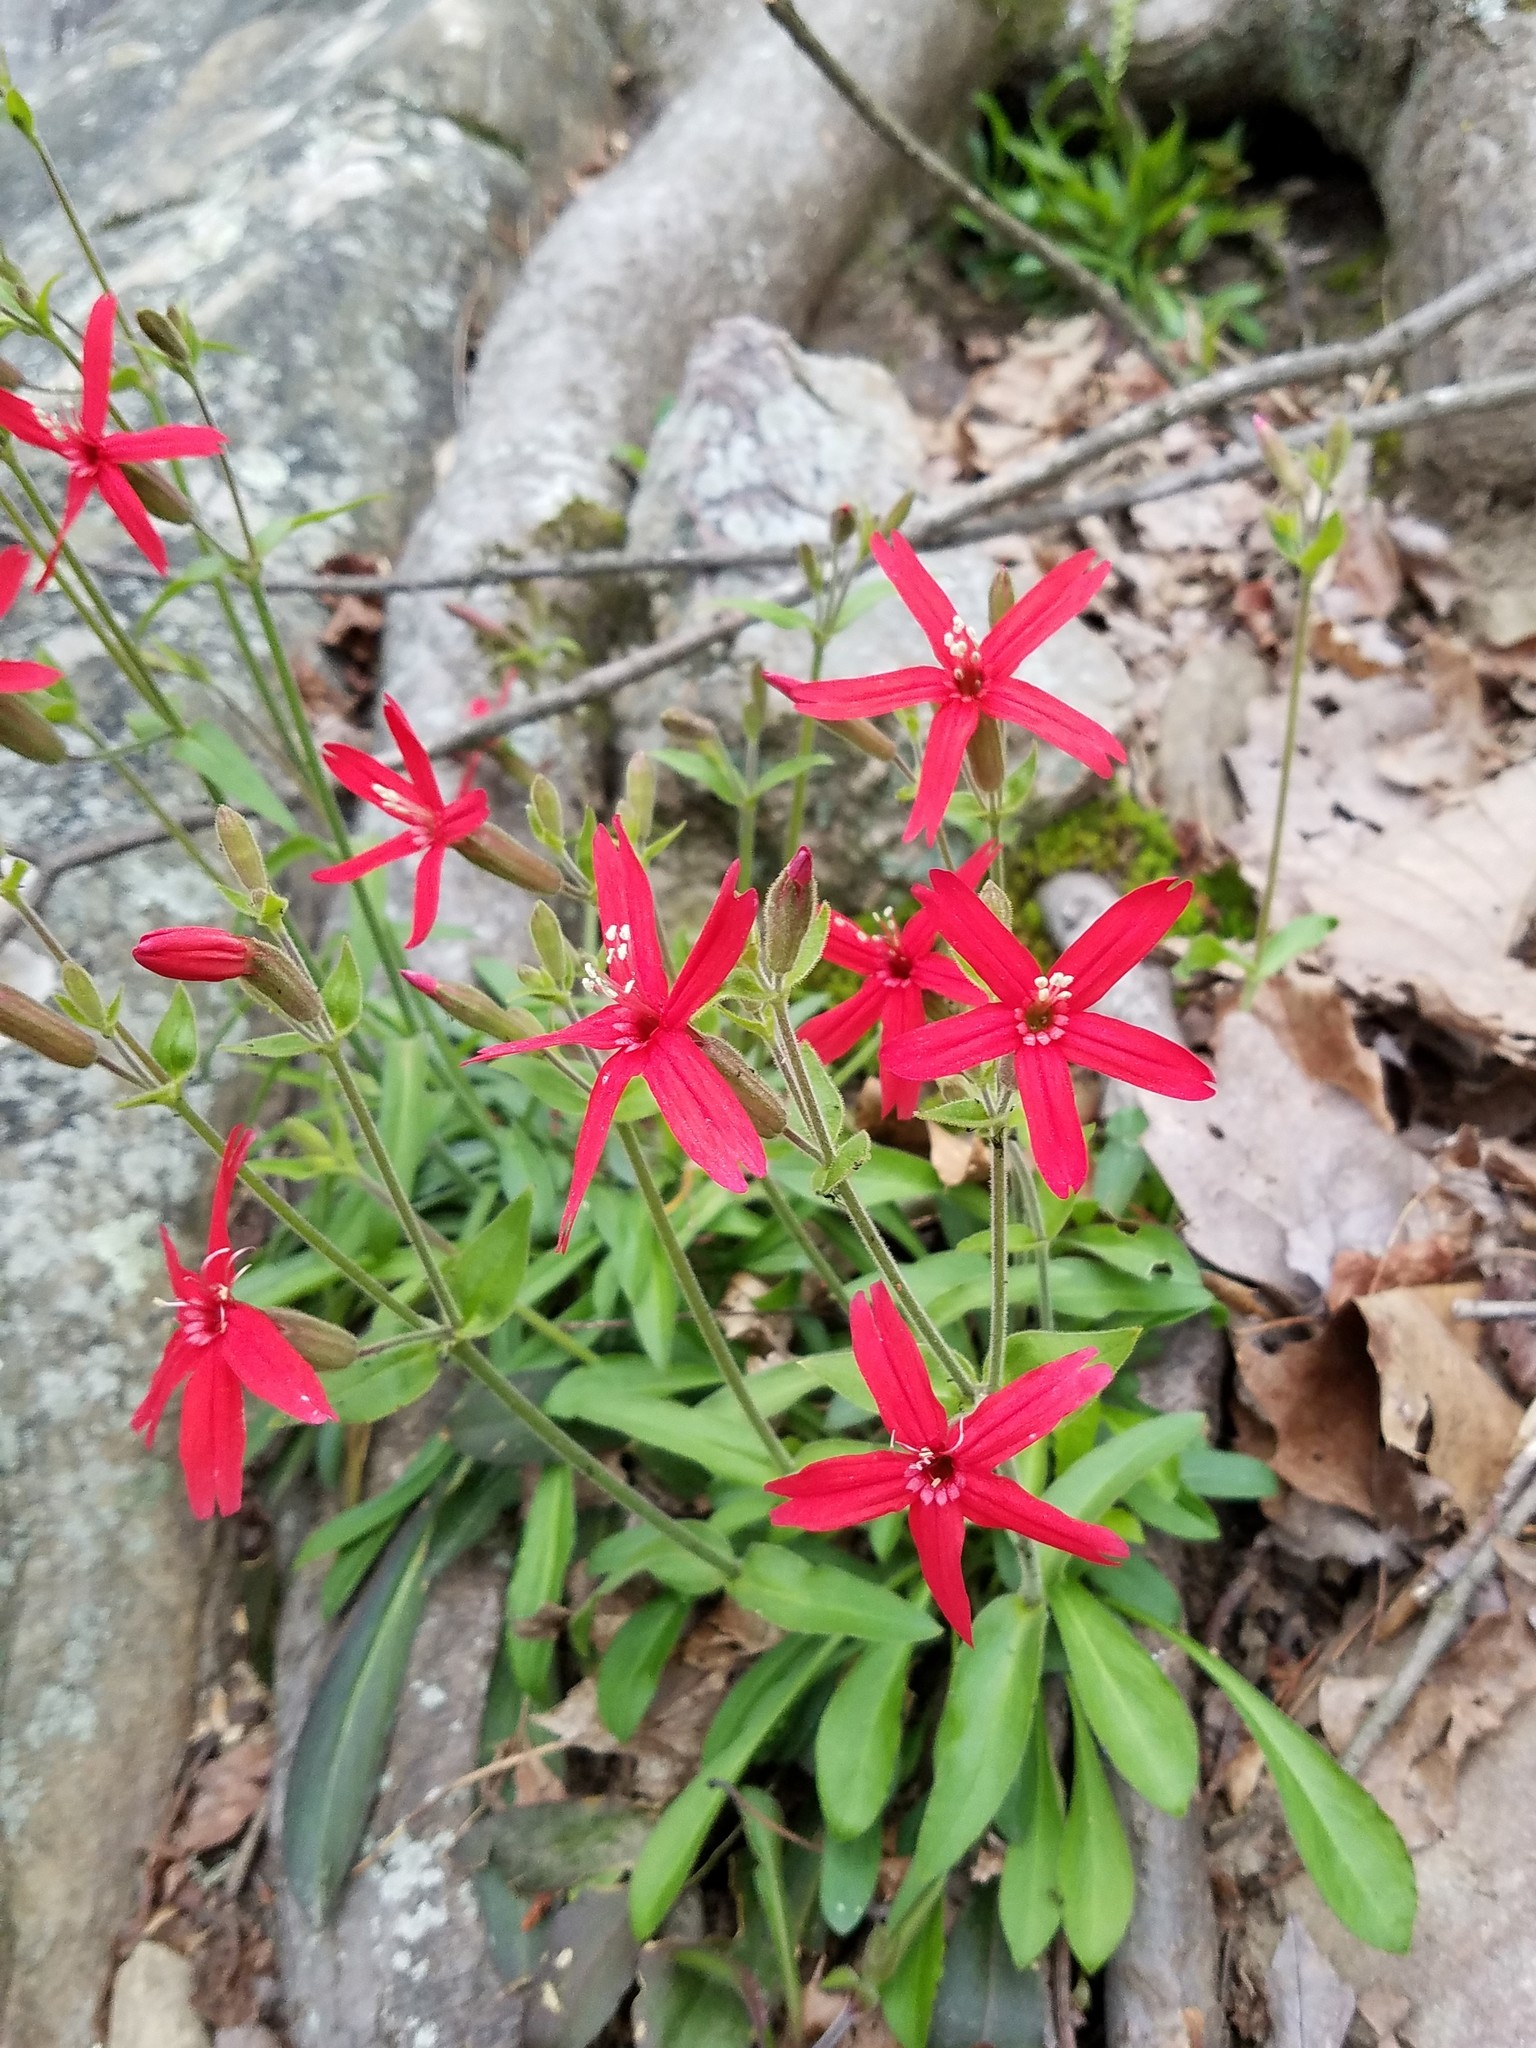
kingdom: Plantae
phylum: Tracheophyta
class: Magnoliopsida
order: Caryophyllales
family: Caryophyllaceae
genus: Silene
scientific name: Silene virginica
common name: Fire-pink
